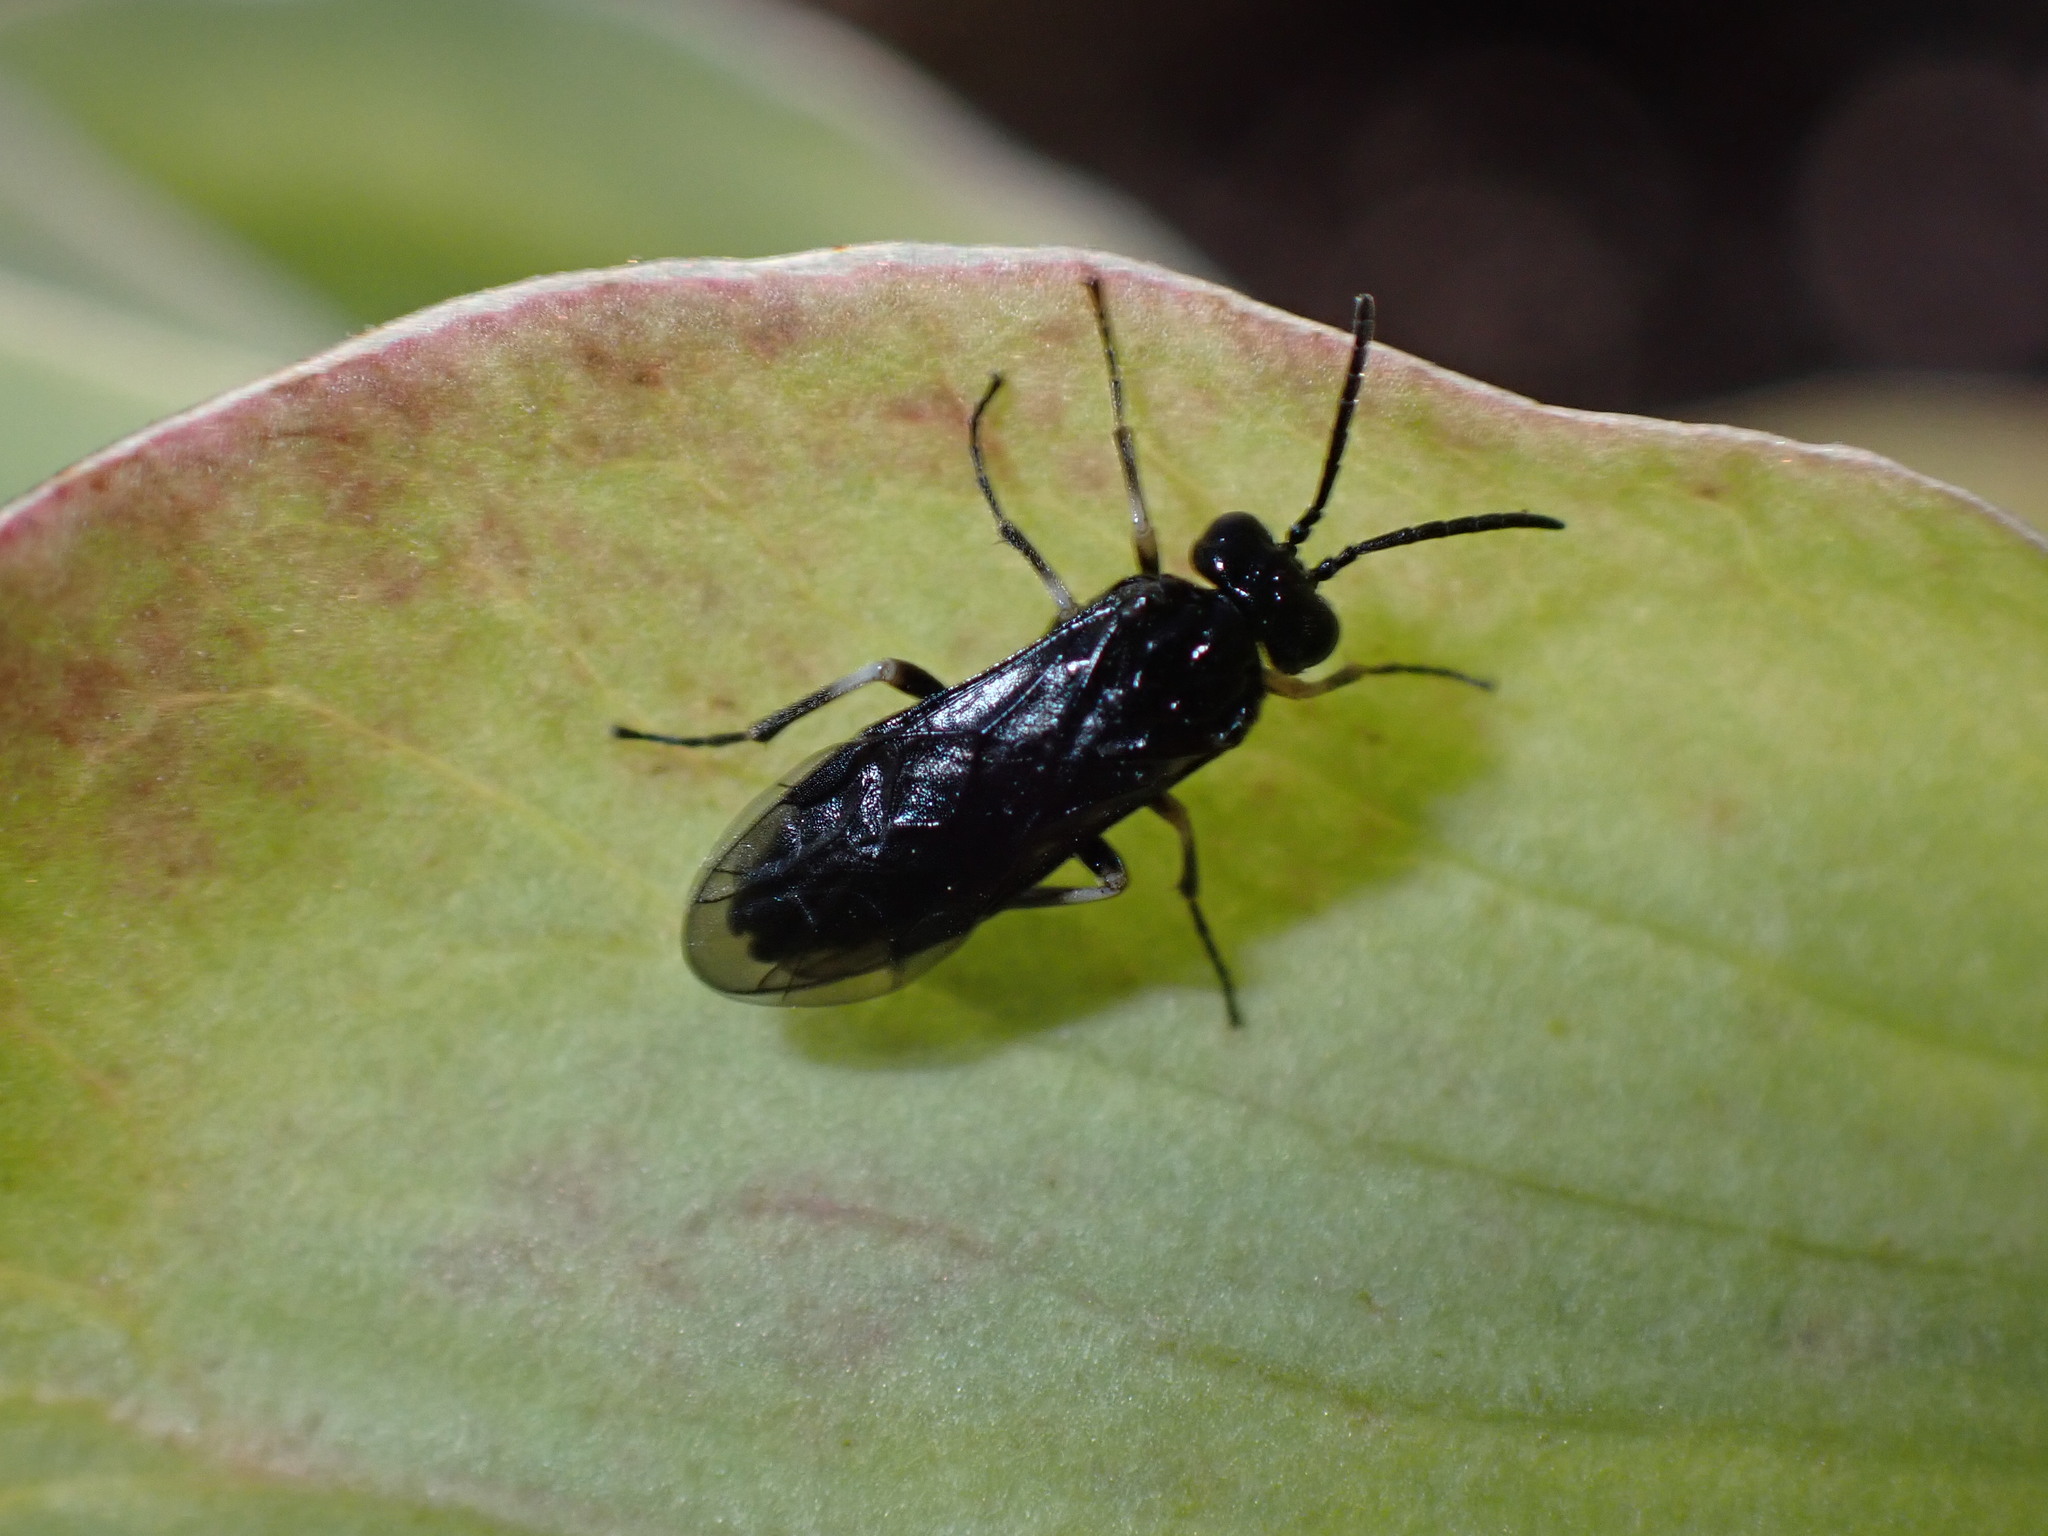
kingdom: Animalia
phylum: Arthropoda
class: Insecta
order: Hymenoptera
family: Tenthredinidae
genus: Monophadnus
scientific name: Monophadnus taegeri
